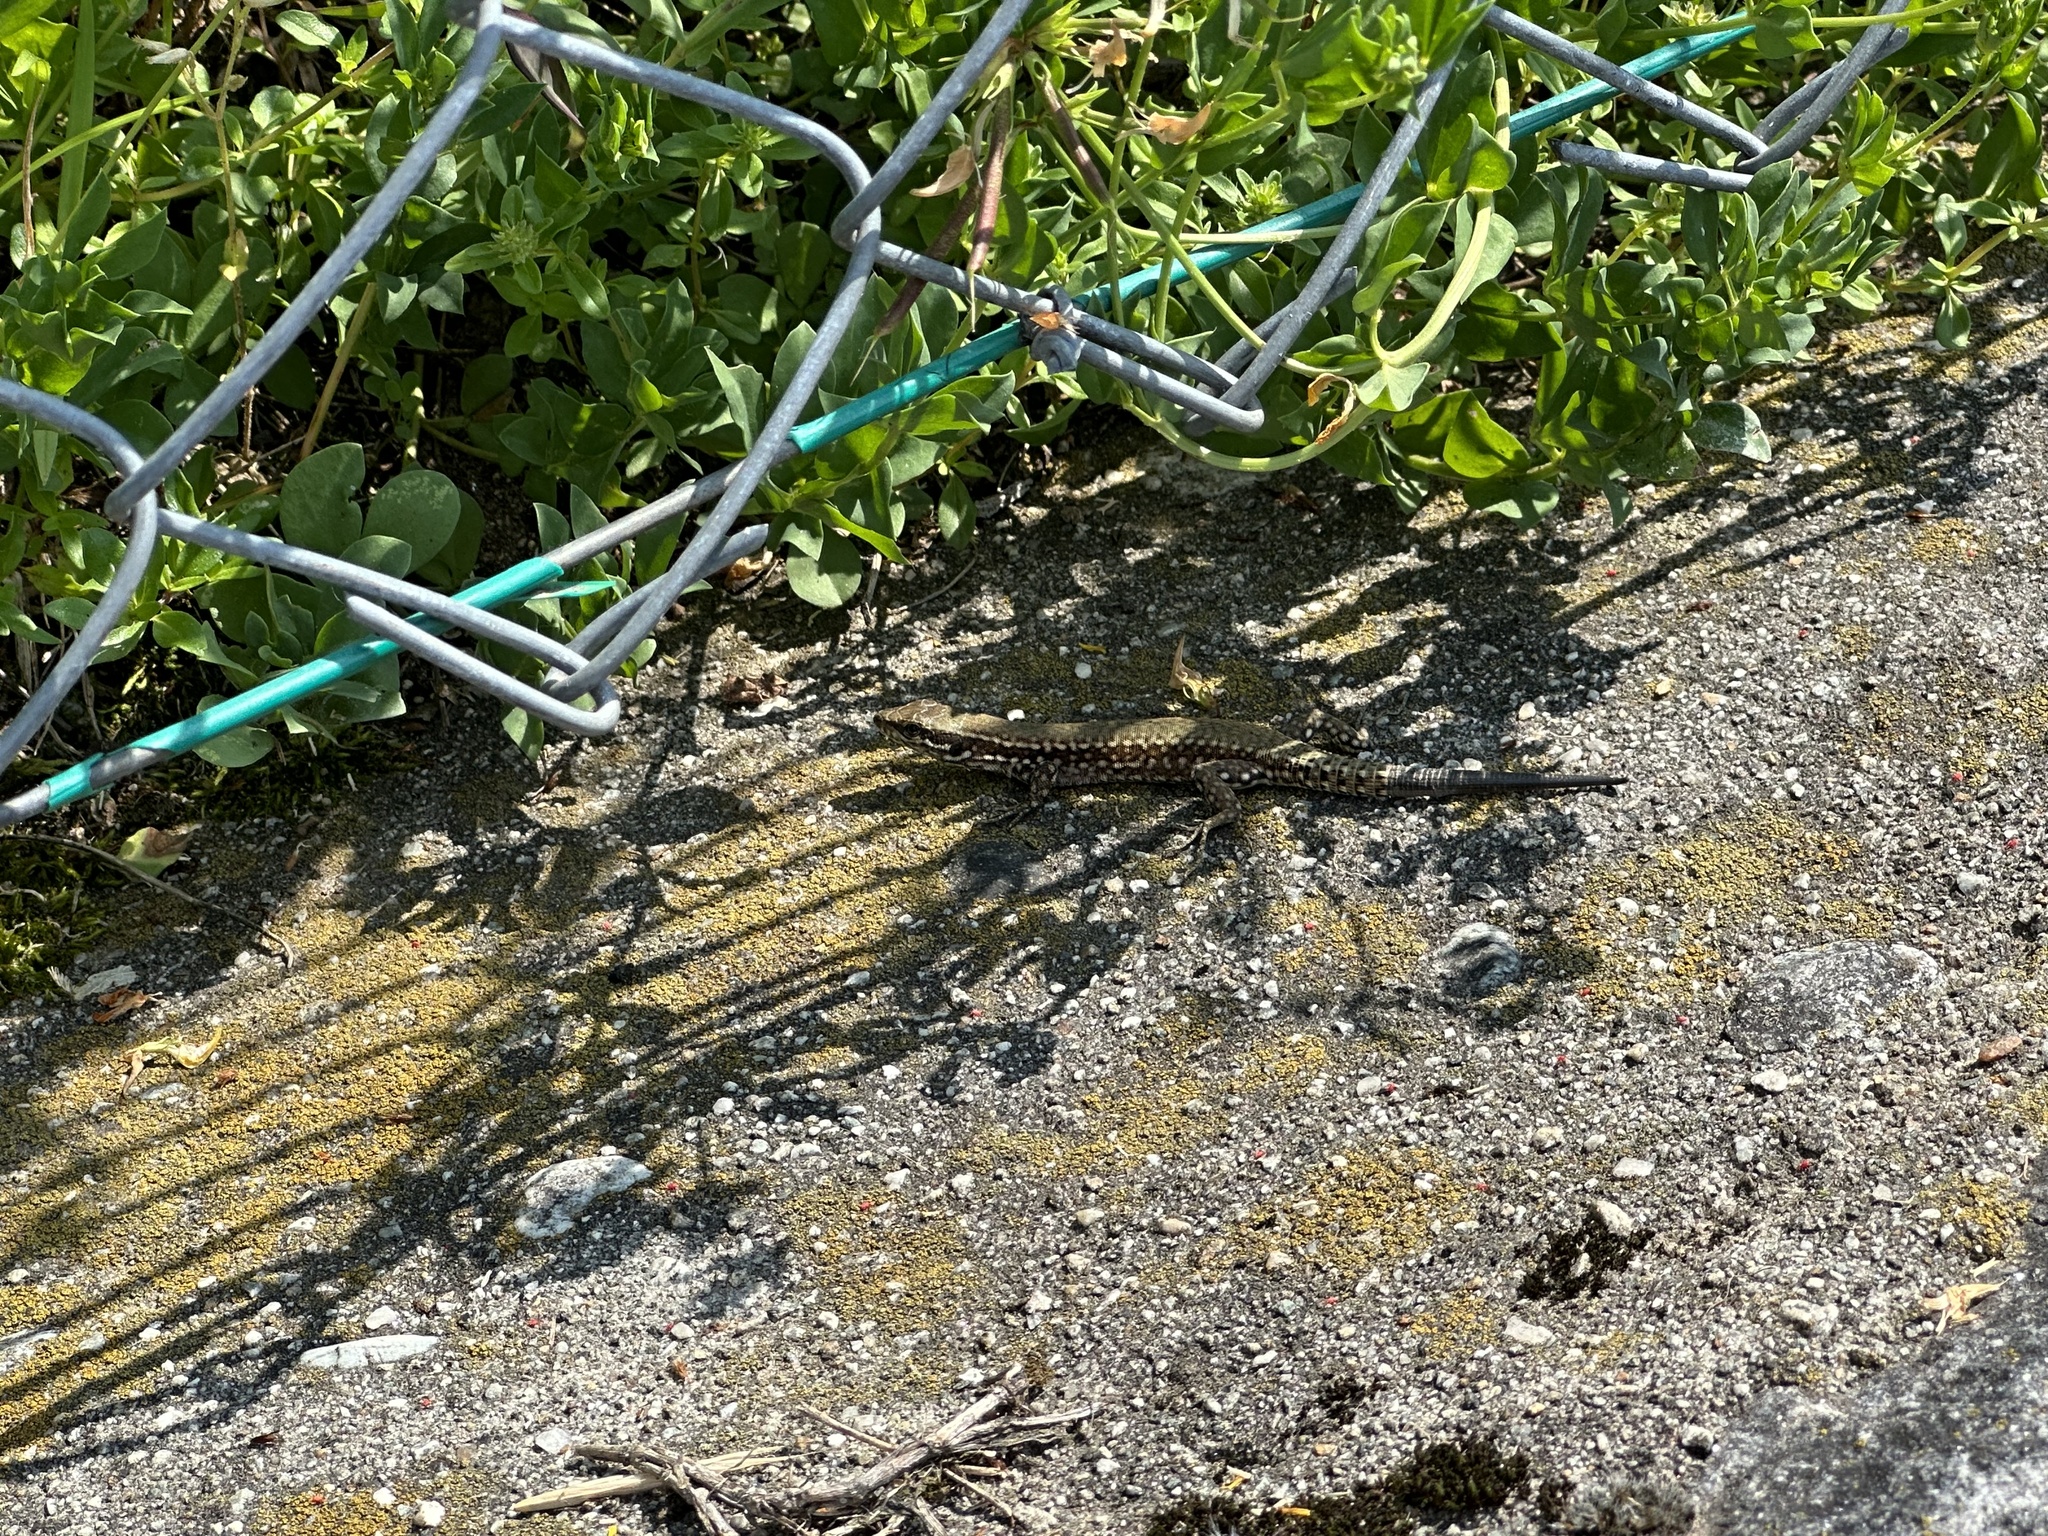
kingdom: Animalia
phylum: Chordata
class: Squamata
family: Lacertidae
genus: Podarcis
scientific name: Podarcis muralis
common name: Common wall lizard
